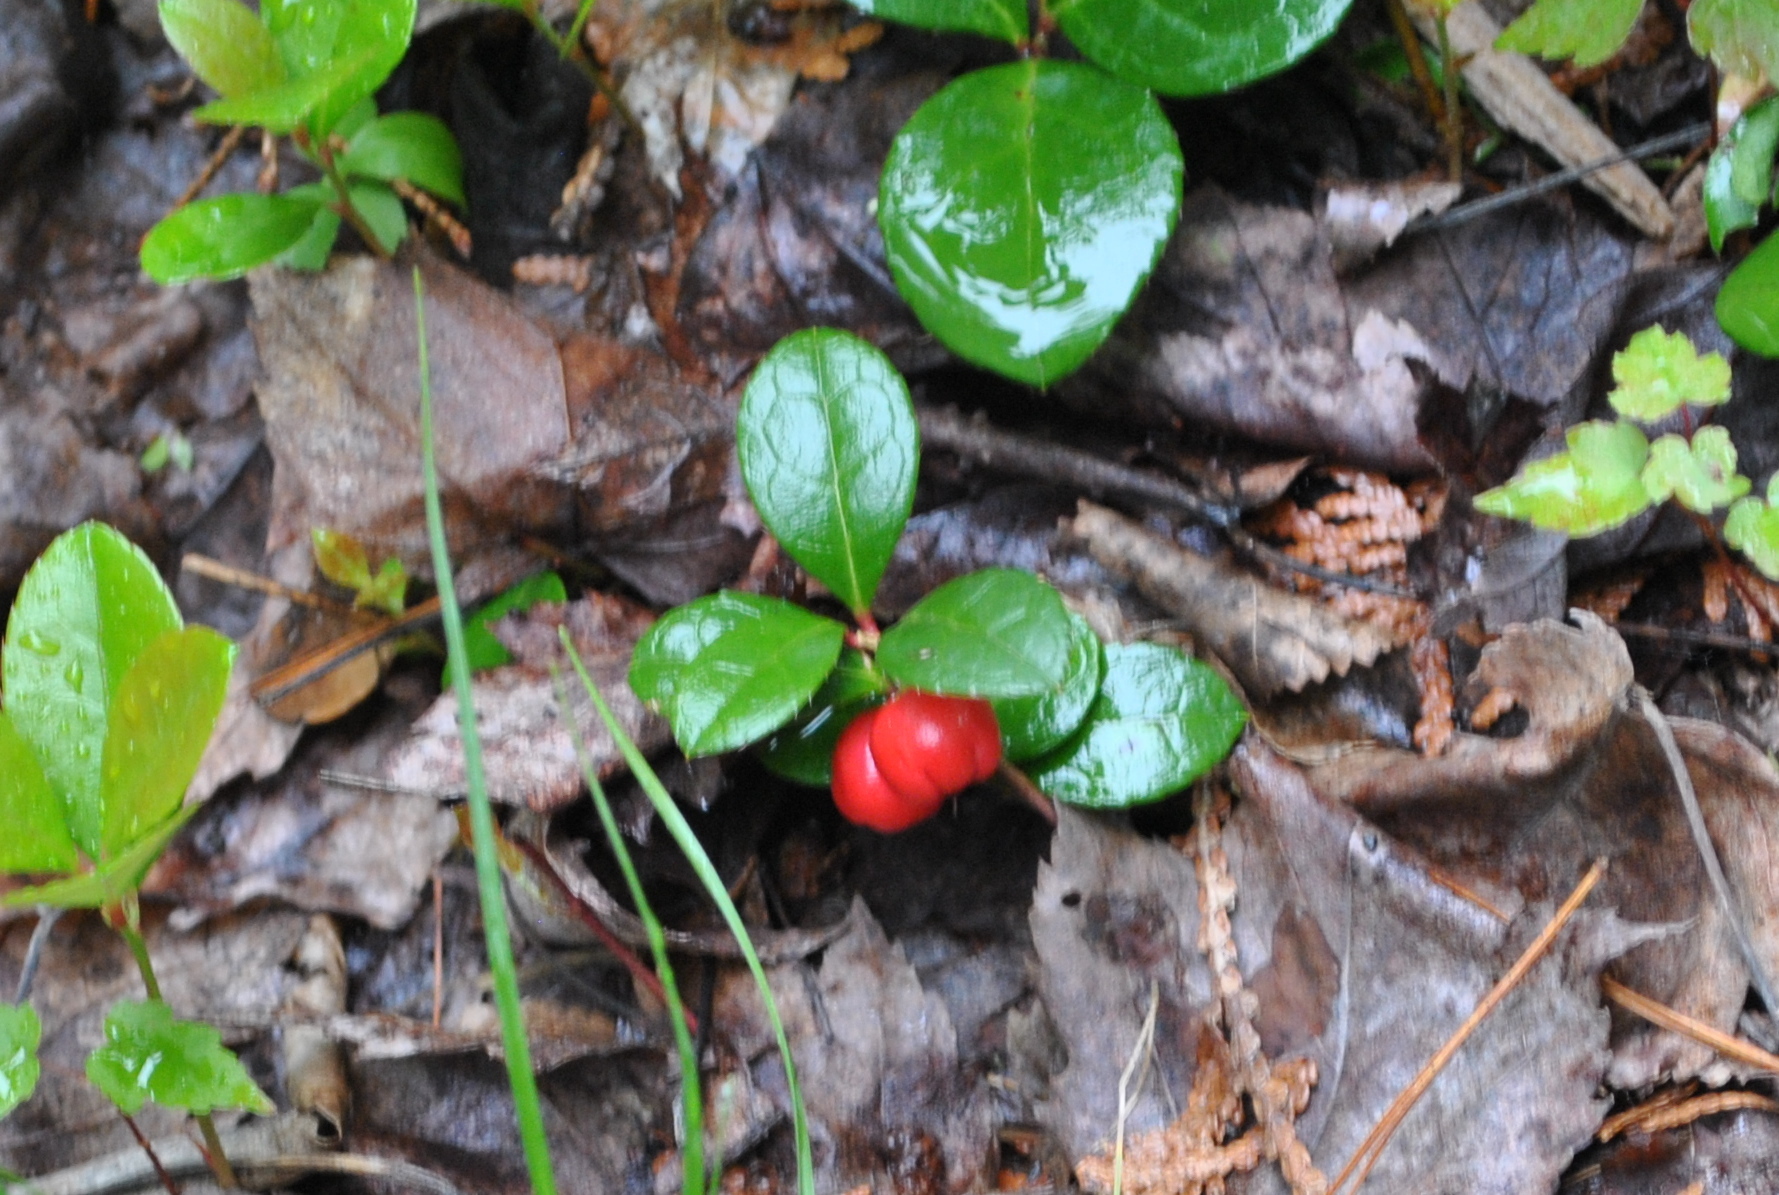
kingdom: Plantae
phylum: Tracheophyta
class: Magnoliopsida
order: Ericales
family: Ericaceae
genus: Gaultheria
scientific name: Gaultheria procumbens
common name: Checkerberry
